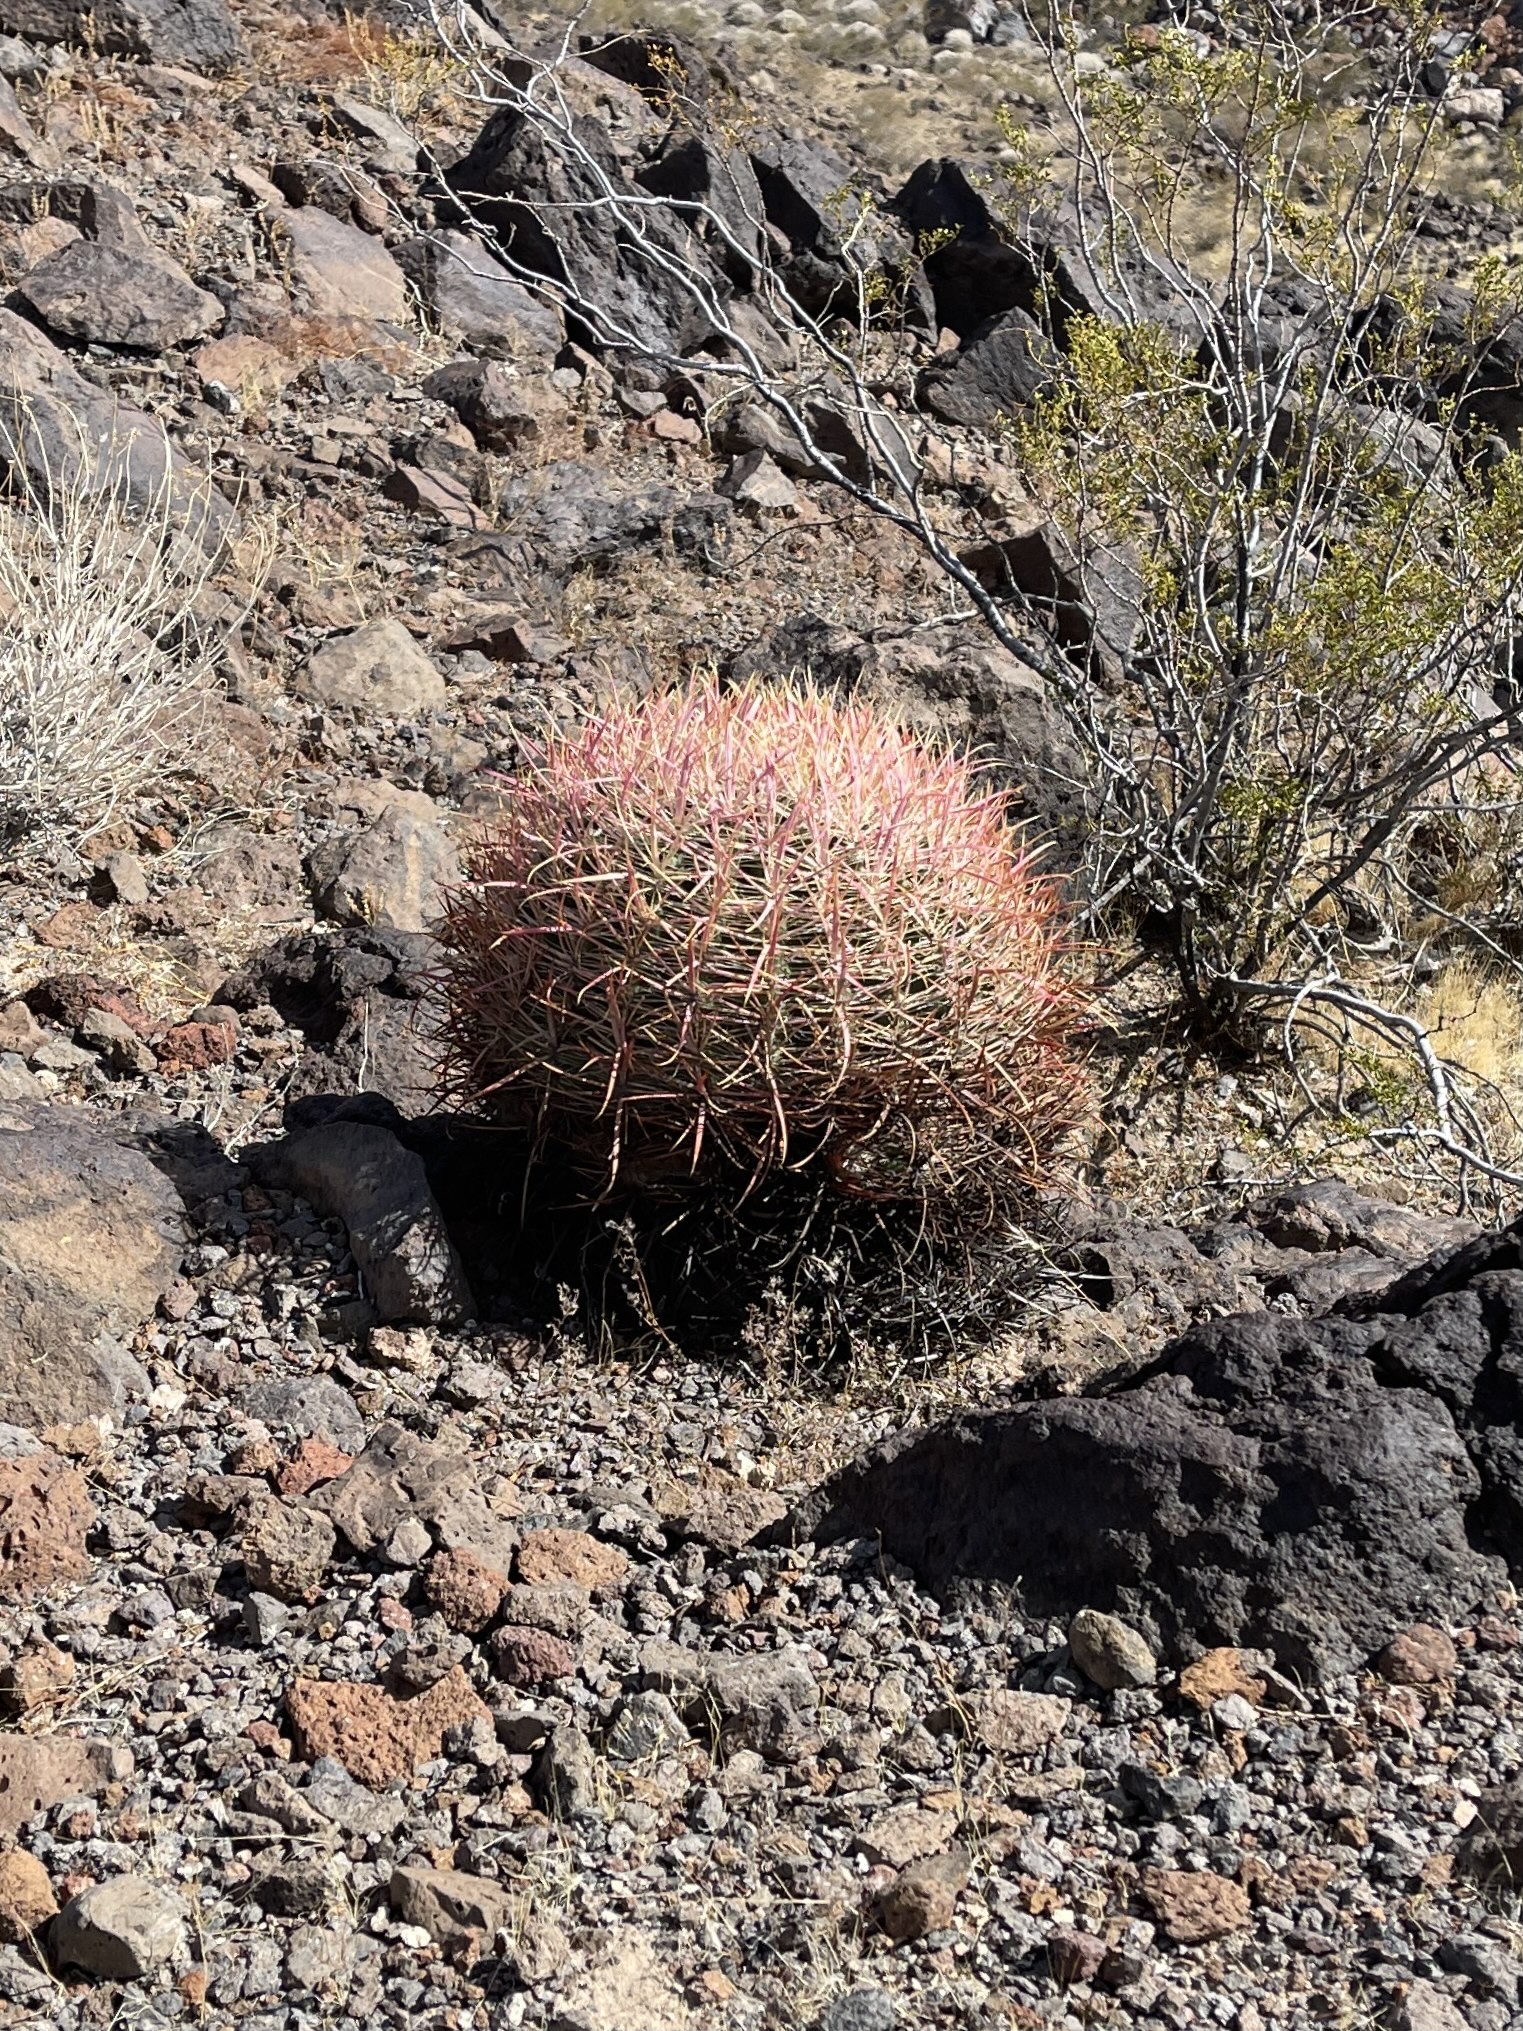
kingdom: Plantae
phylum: Tracheophyta
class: Magnoliopsida
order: Caryophyllales
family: Cactaceae
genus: Ferocactus
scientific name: Ferocactus cylindraceus
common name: California barrel cactus
